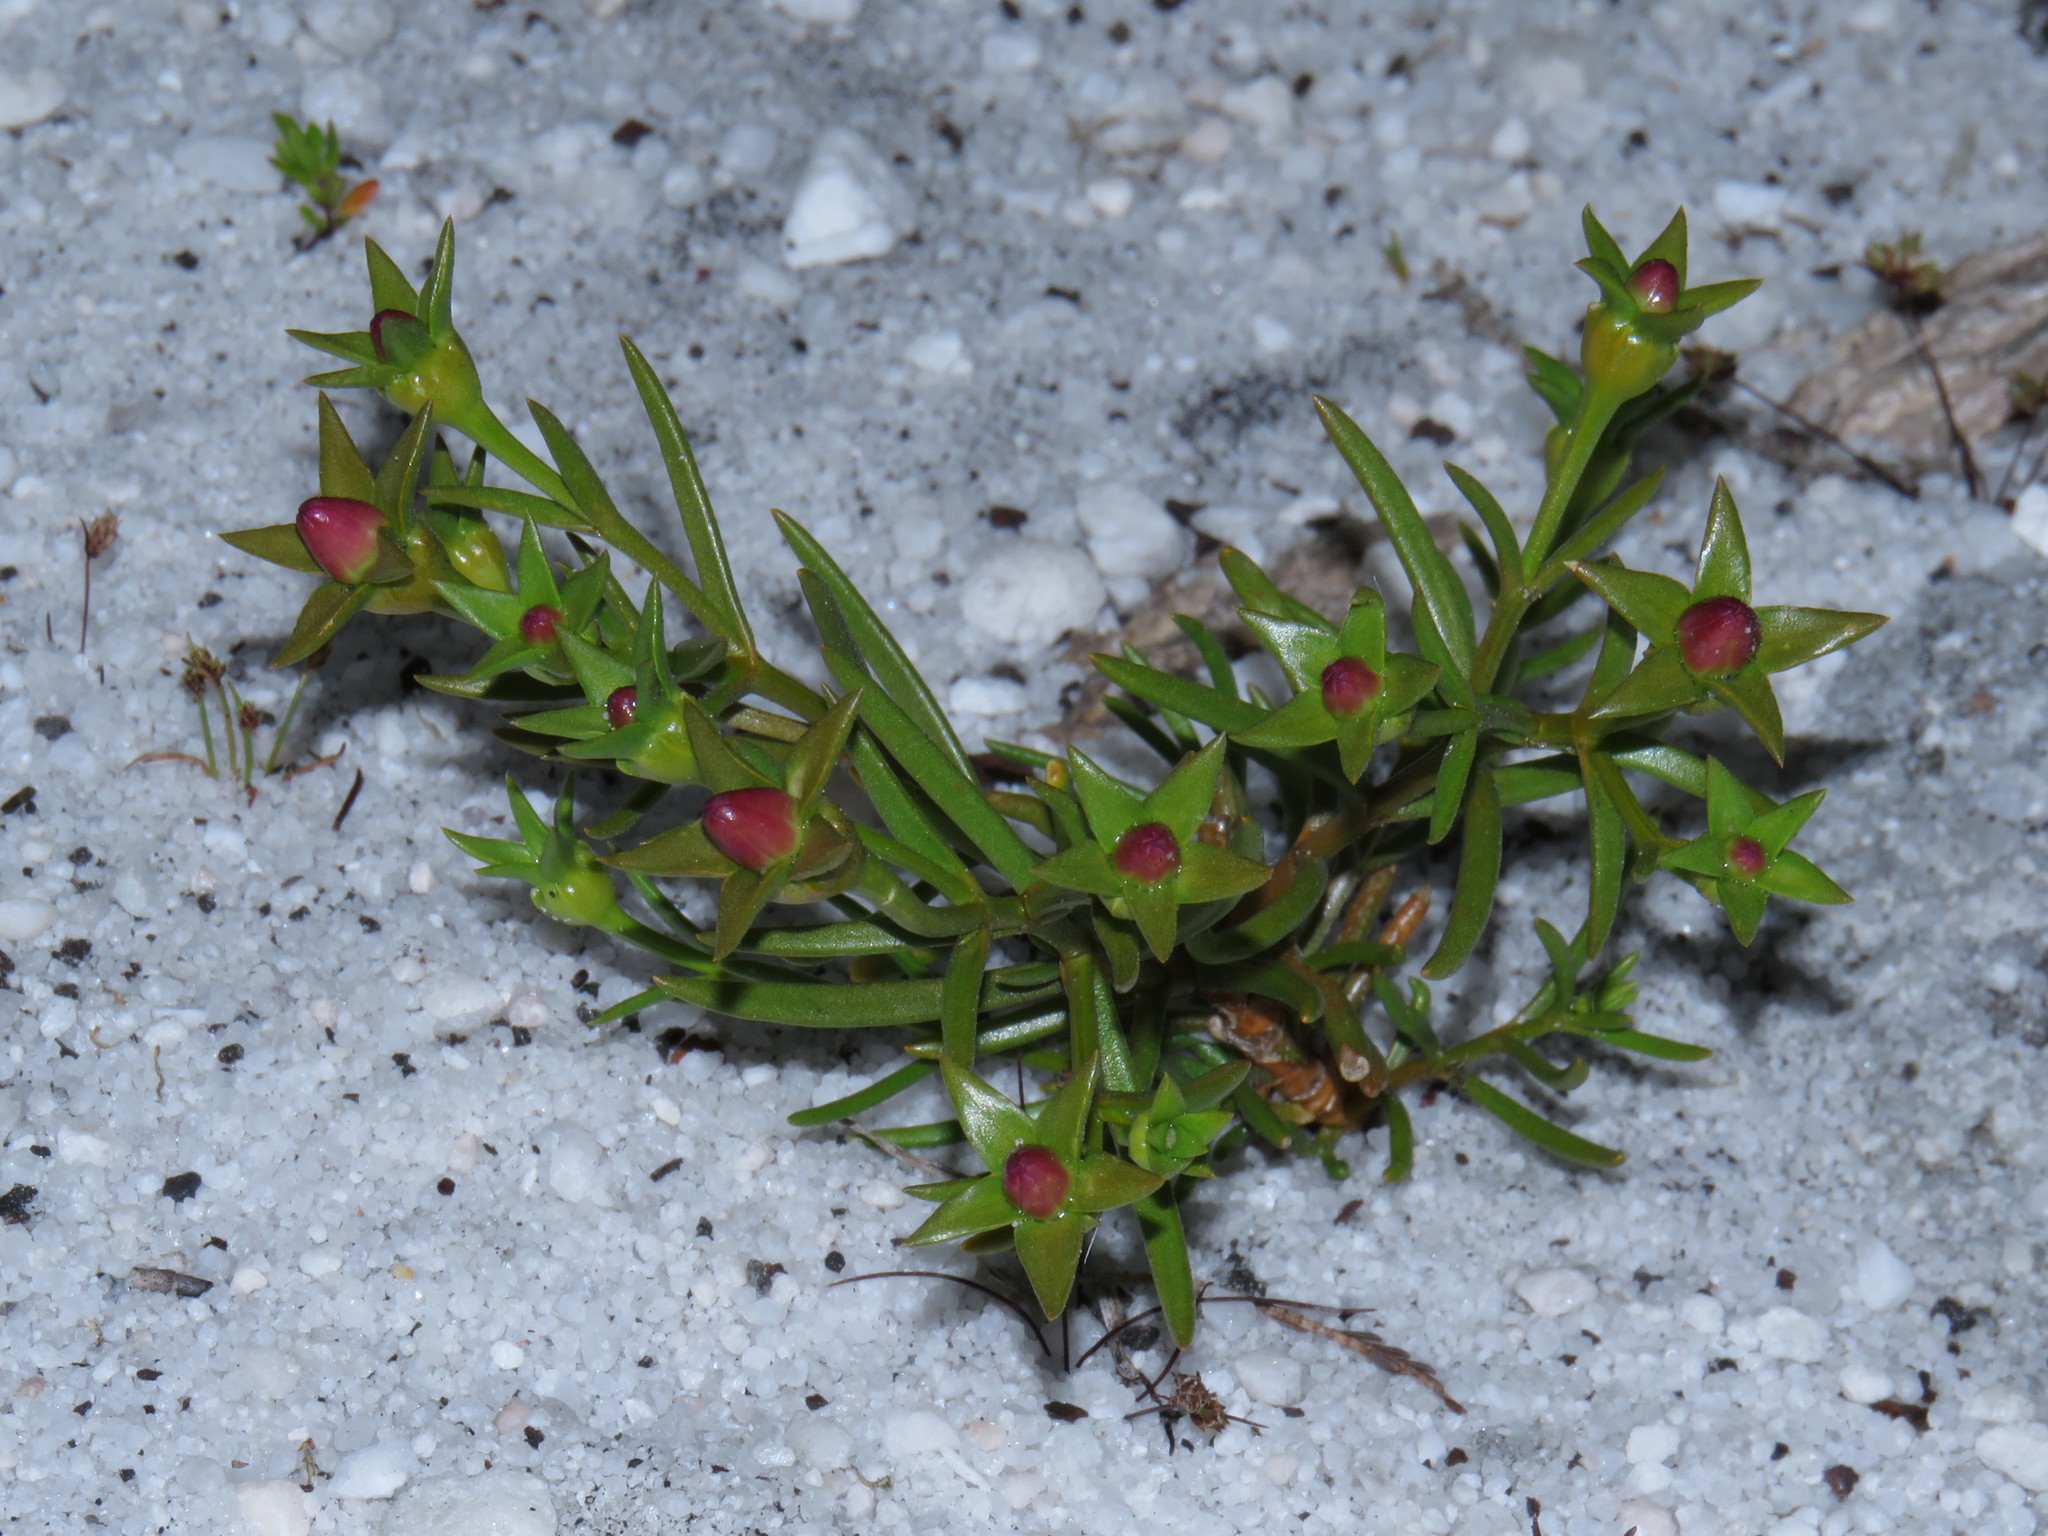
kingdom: Plantae
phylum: Tracheophyta
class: Magnoliopsida
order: Gentianales
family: Gentianaceae
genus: Chironia
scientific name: Chironia linoides
